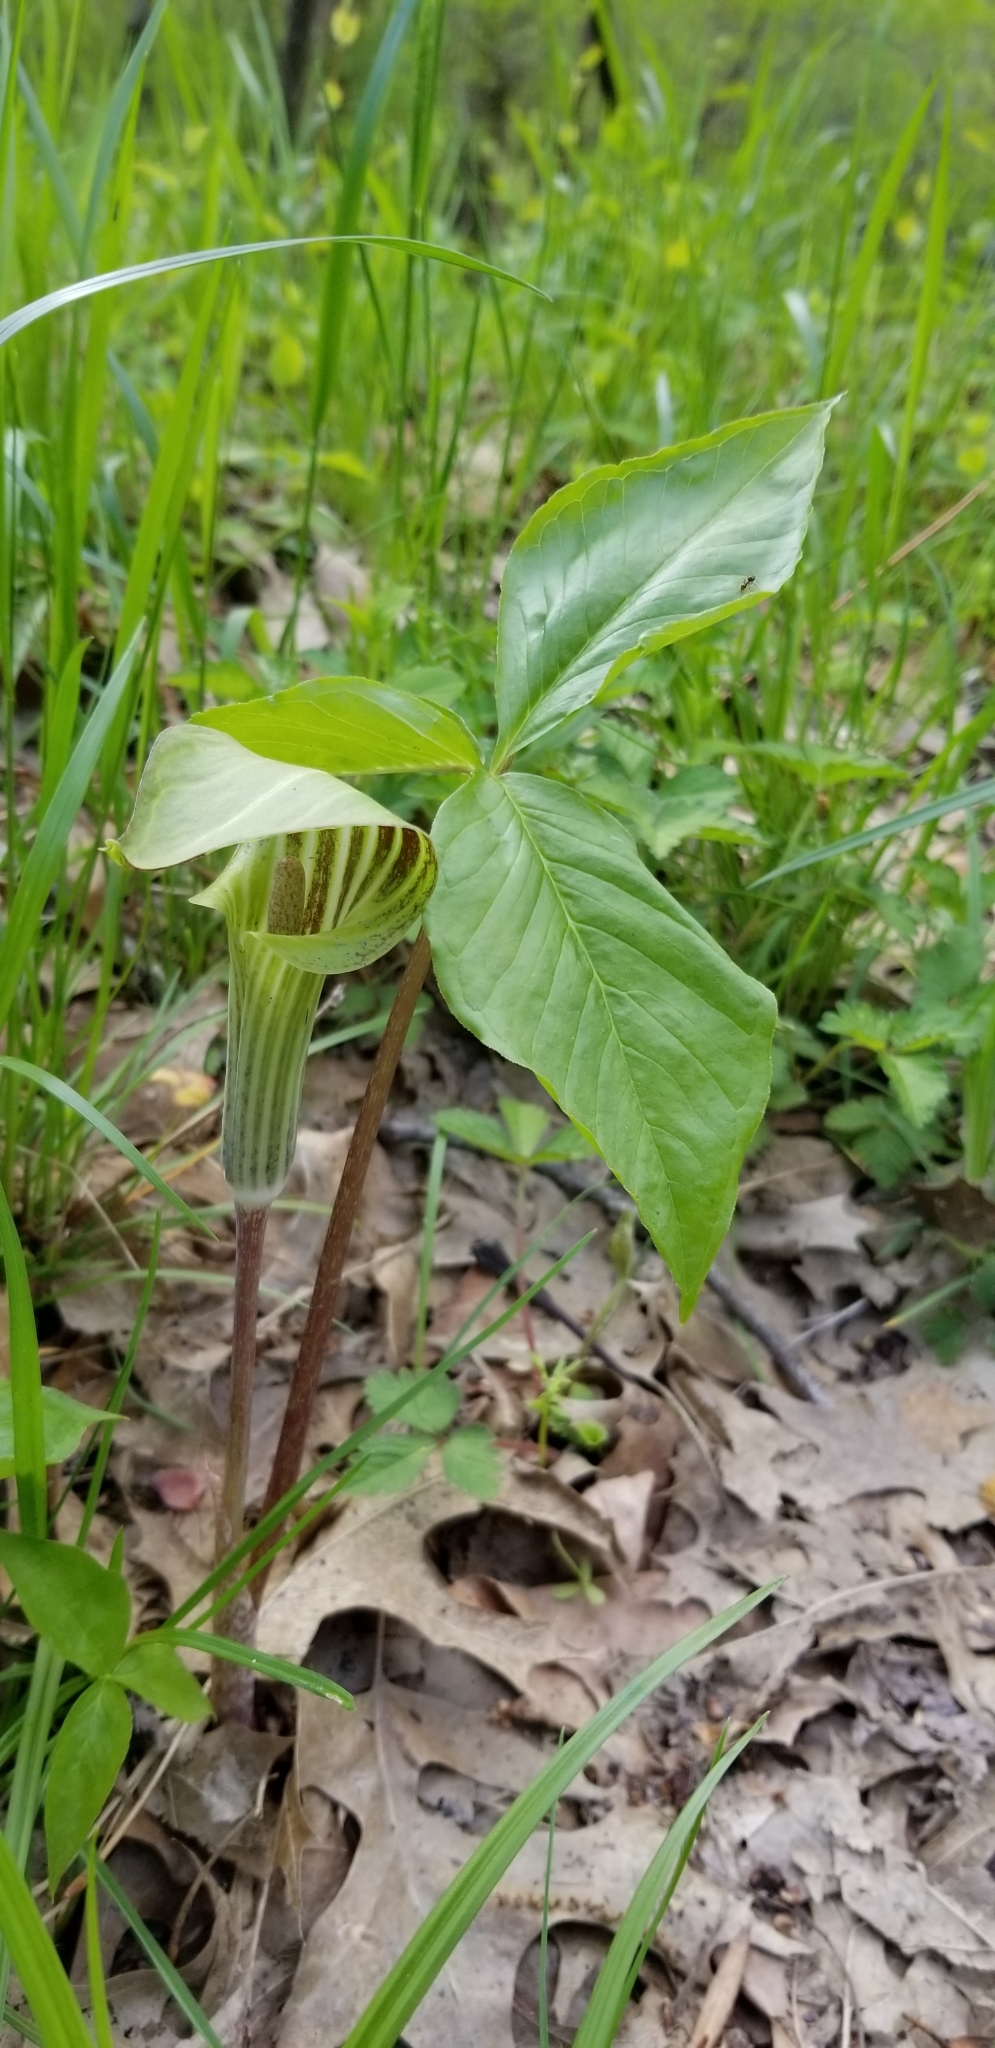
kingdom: Plantae
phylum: Tracheophyta
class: Liliopsida
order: Alismatales
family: Araceae
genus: Arisaema
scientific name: Arisaema triphyllum
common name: Jack-in-the-pulpit
